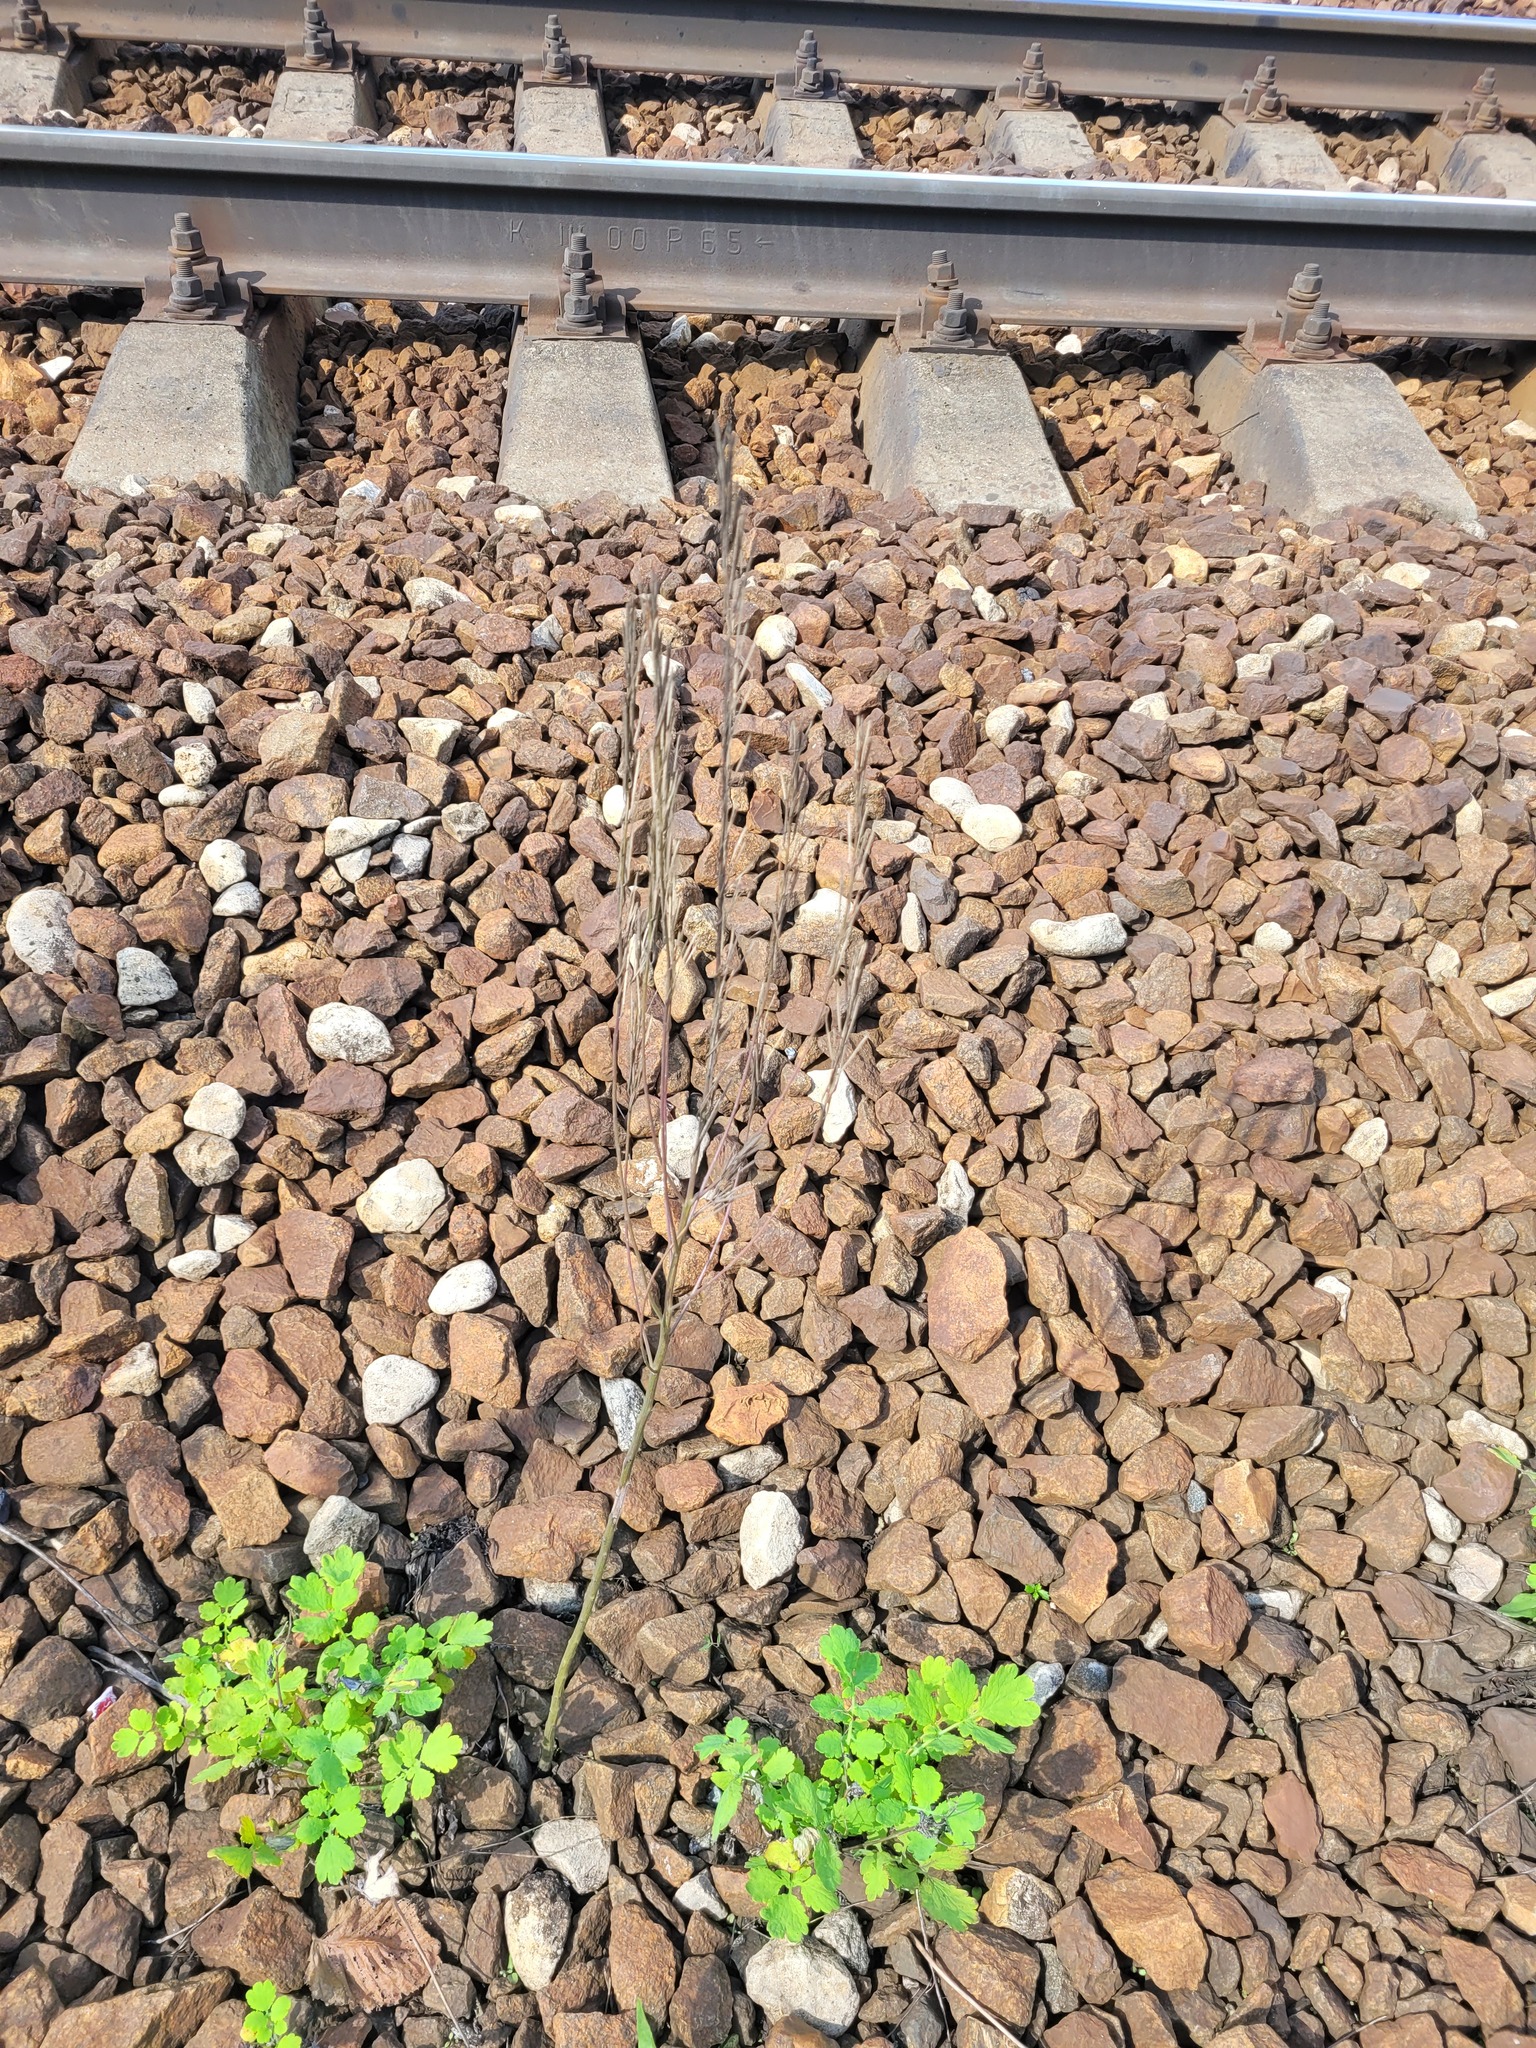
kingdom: Plantae
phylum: Tracheophyta
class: Magnoliopsida
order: Brassicales
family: Brassicaceae
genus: Erysimum
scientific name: Erysimum hieraciifolium
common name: European wallflower
